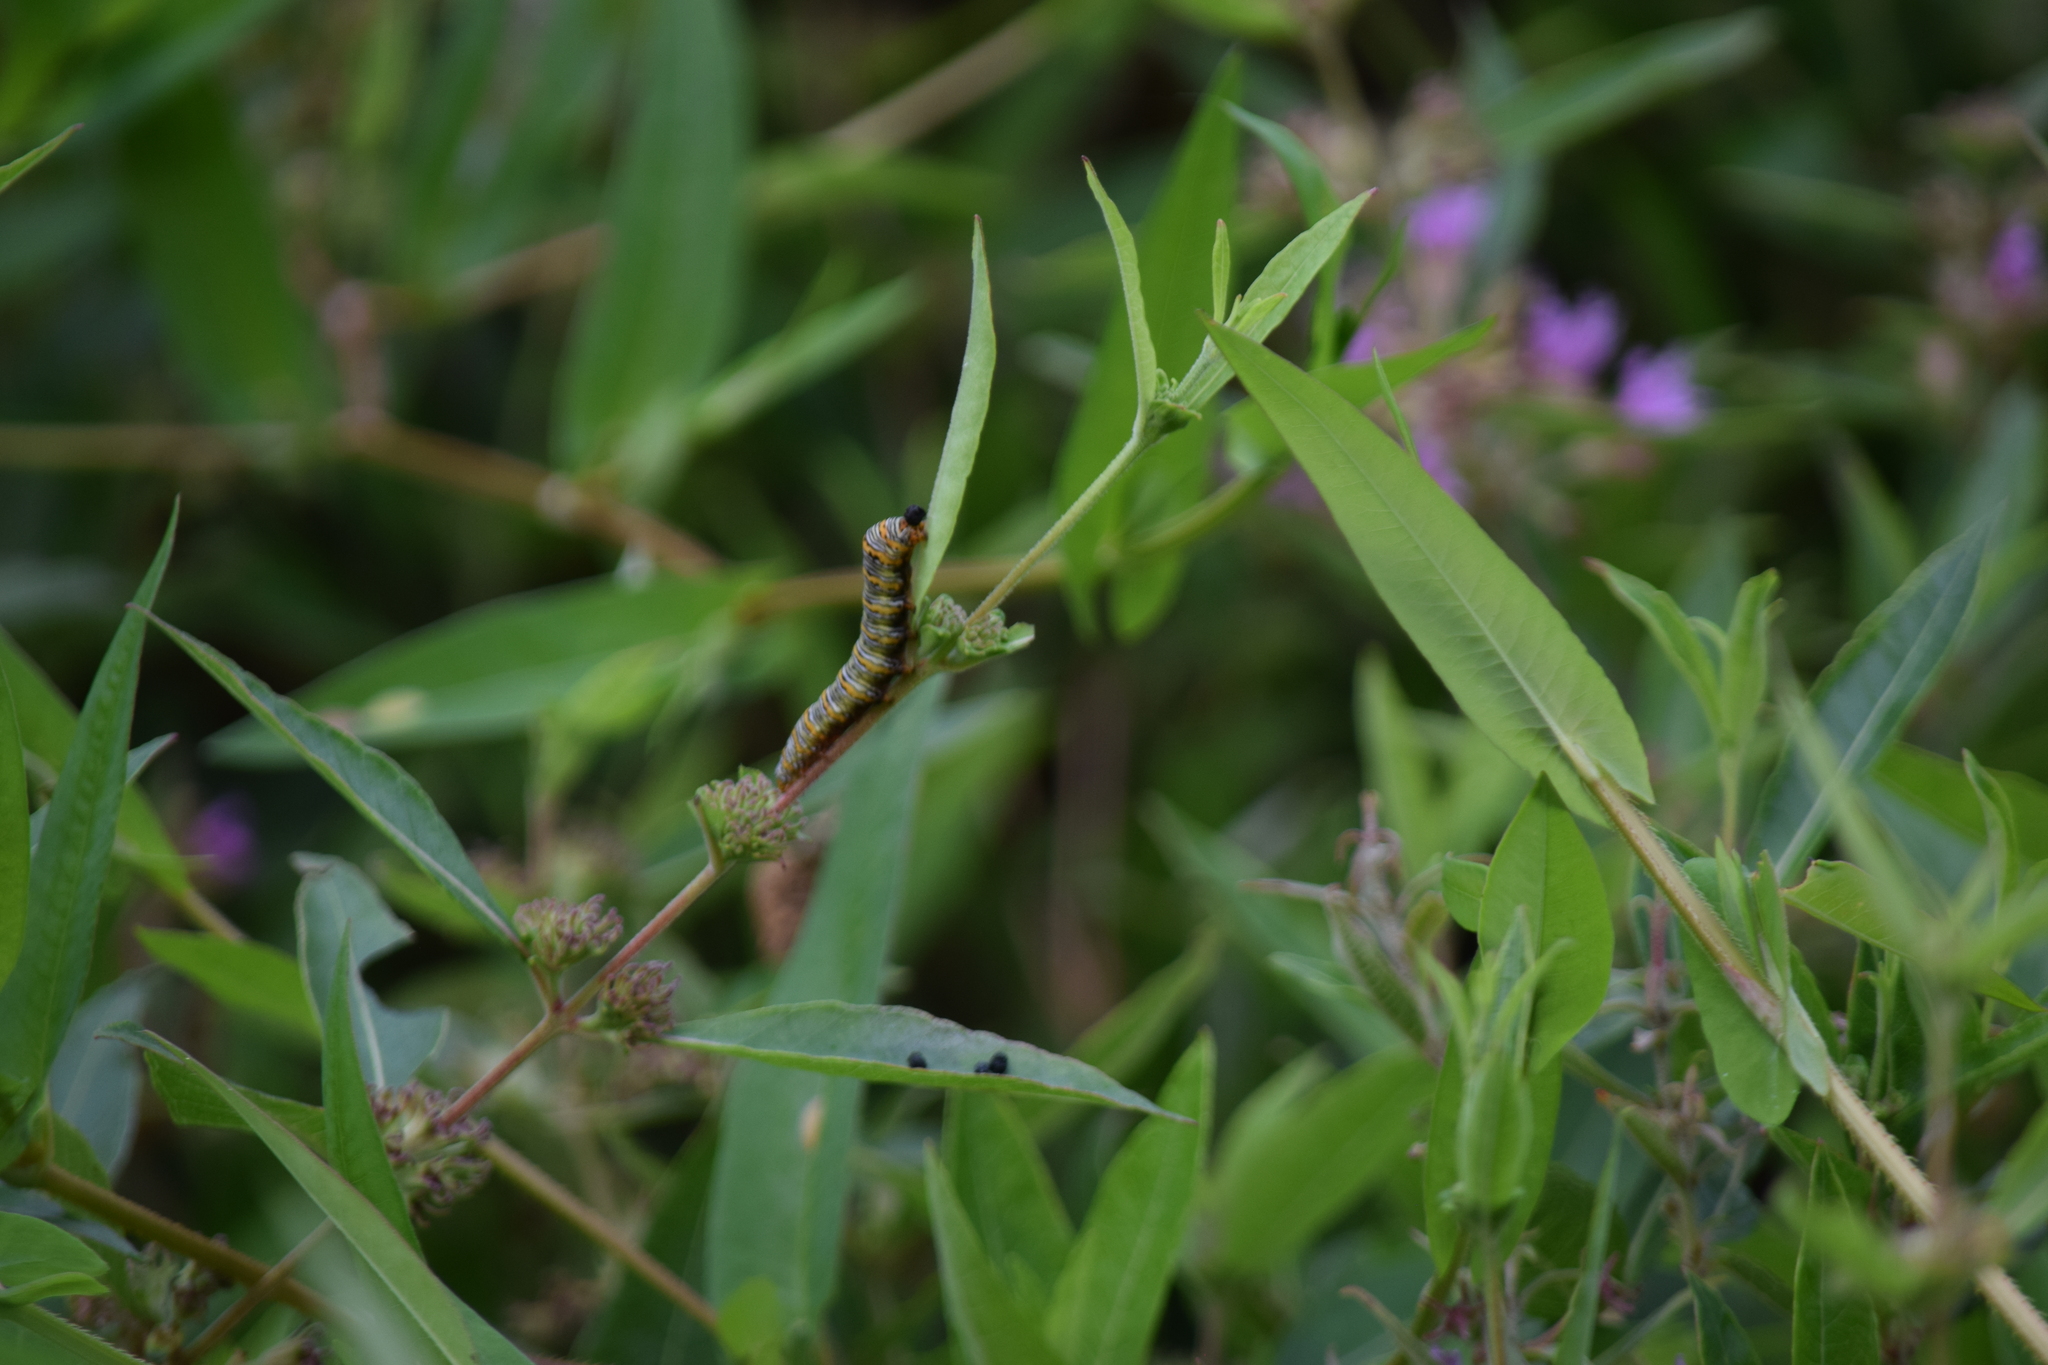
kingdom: Animalia
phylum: Arthropoda
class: Insecta
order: Lepidoptera
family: Noctuidae
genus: Eudryas
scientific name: Eudryas unio
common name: Pearly wood-nymph
